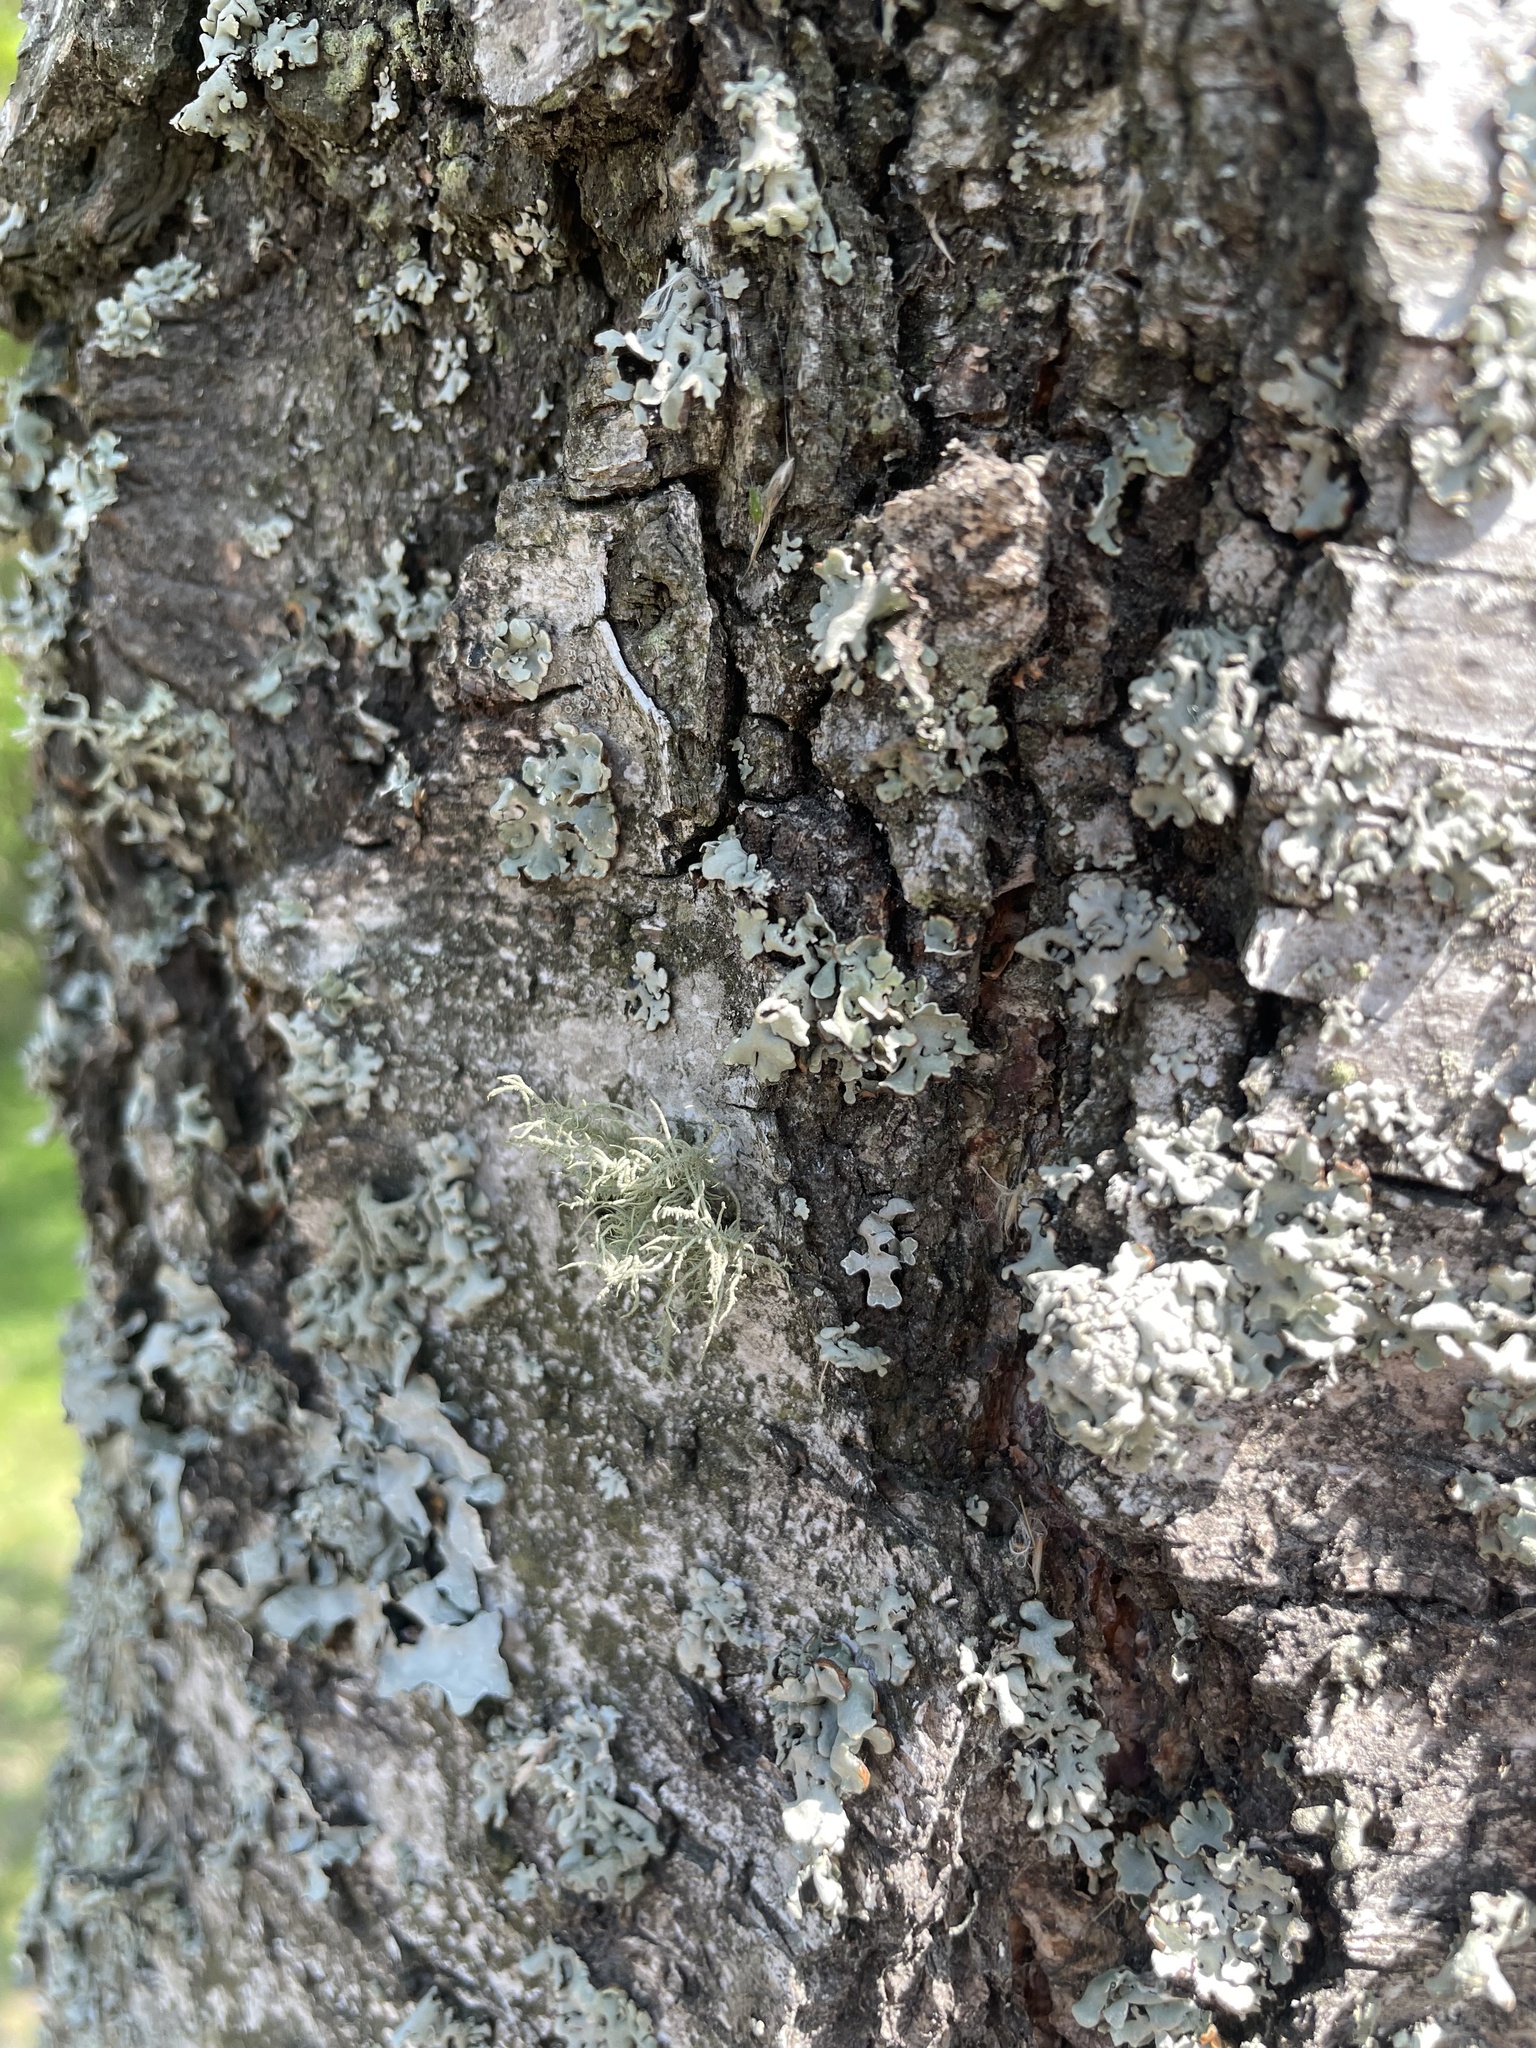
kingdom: Fungi
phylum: Ascomycota
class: Lecanoromycetes
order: Lecanorales
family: Parmeliaceae
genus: Usnea
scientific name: Usnea hirta
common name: Bristly beard lichen
